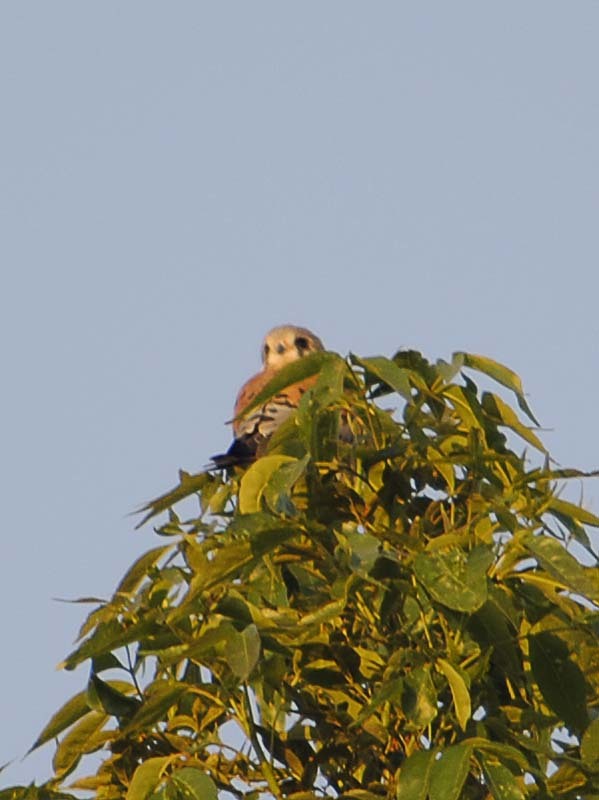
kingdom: Animalia
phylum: Chordata
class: Aves
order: Falconiformes
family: Falconidae
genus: Falco
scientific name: Falco sparverius
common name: American kestrel
